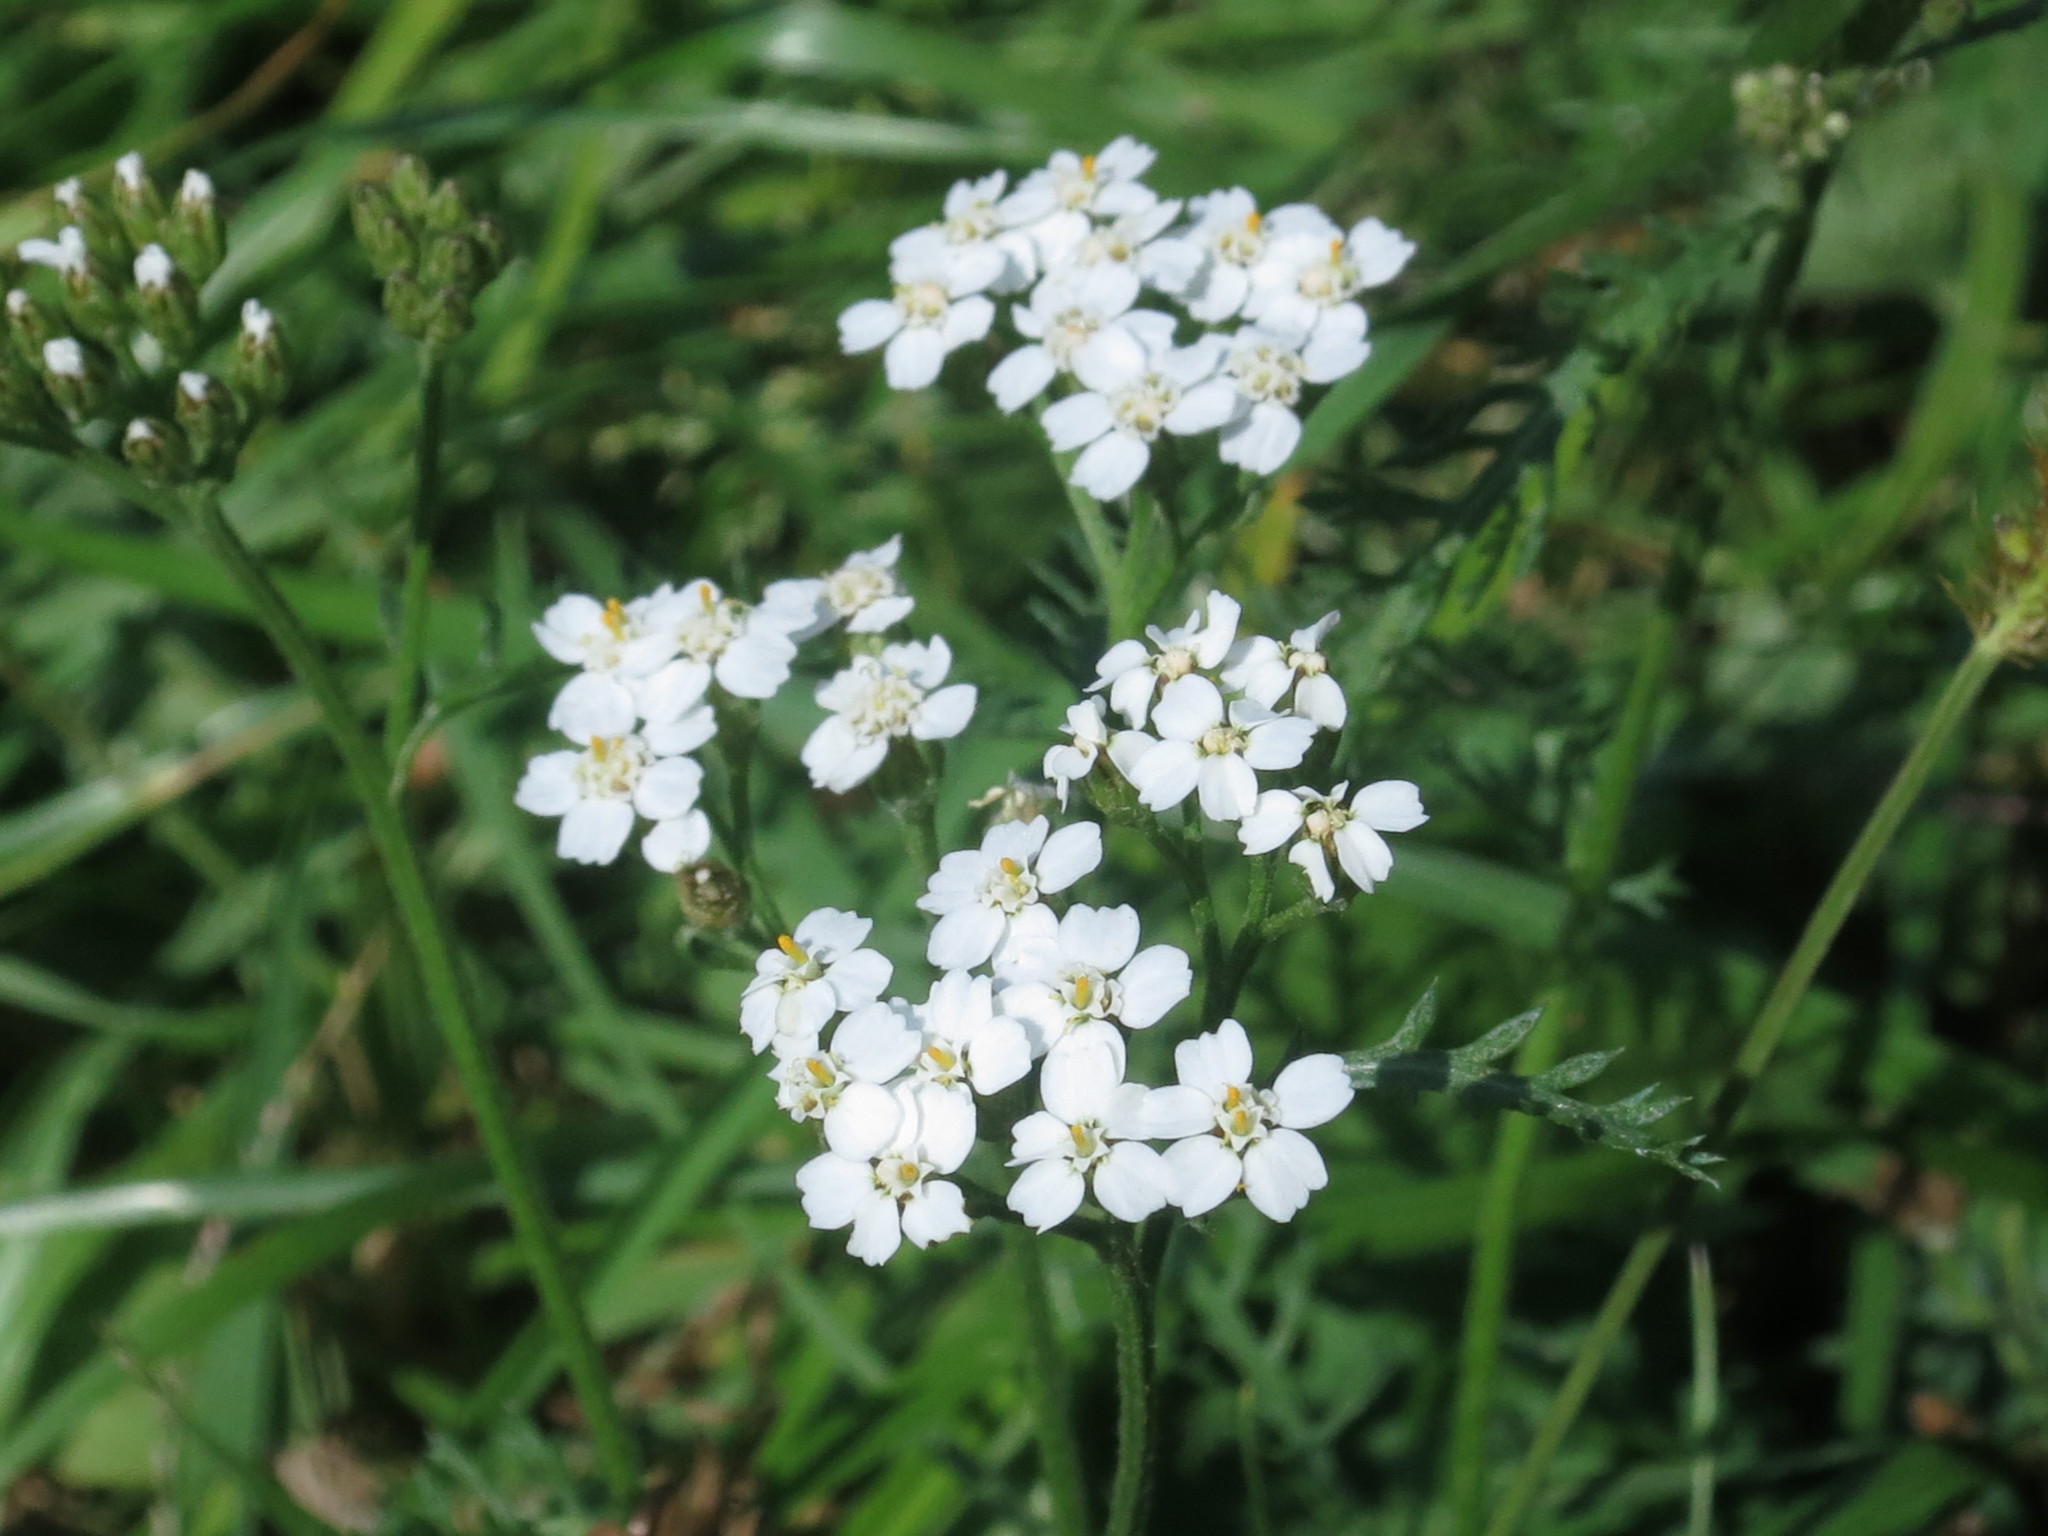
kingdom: Plantae
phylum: Tracheophyta
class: Magnoliopsida
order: Asterales
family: Asteraceae
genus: Achillea
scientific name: Achillea millefolium
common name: Yarrow
